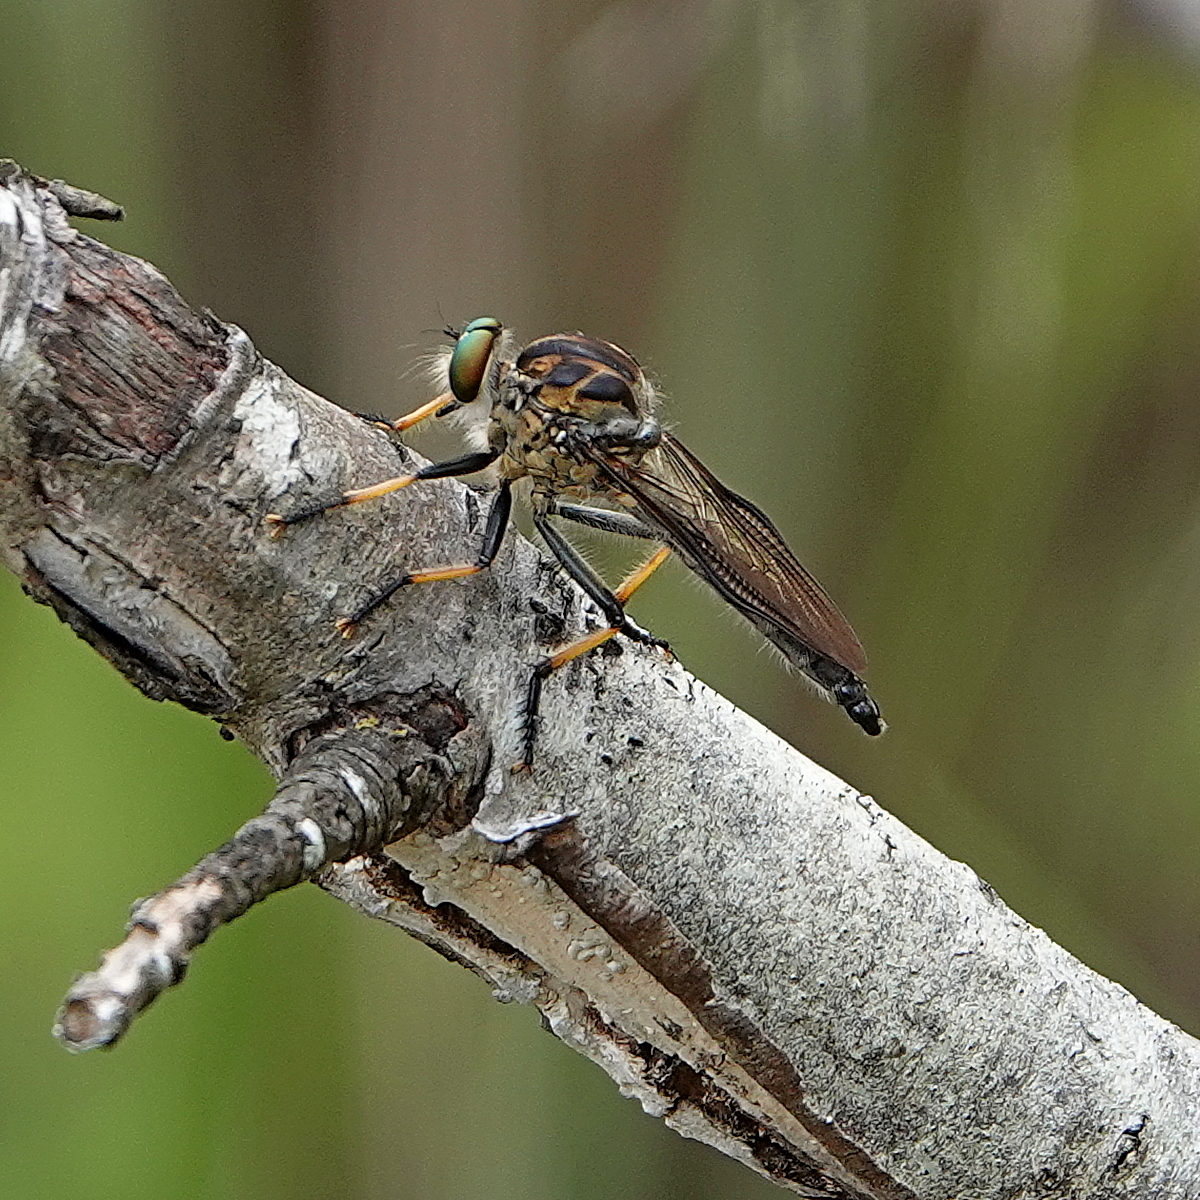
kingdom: Animalia
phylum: Arthropoda
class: Insecta
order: Diptera
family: Asilidae
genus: Ommatius
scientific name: Ommatius coeraebus
